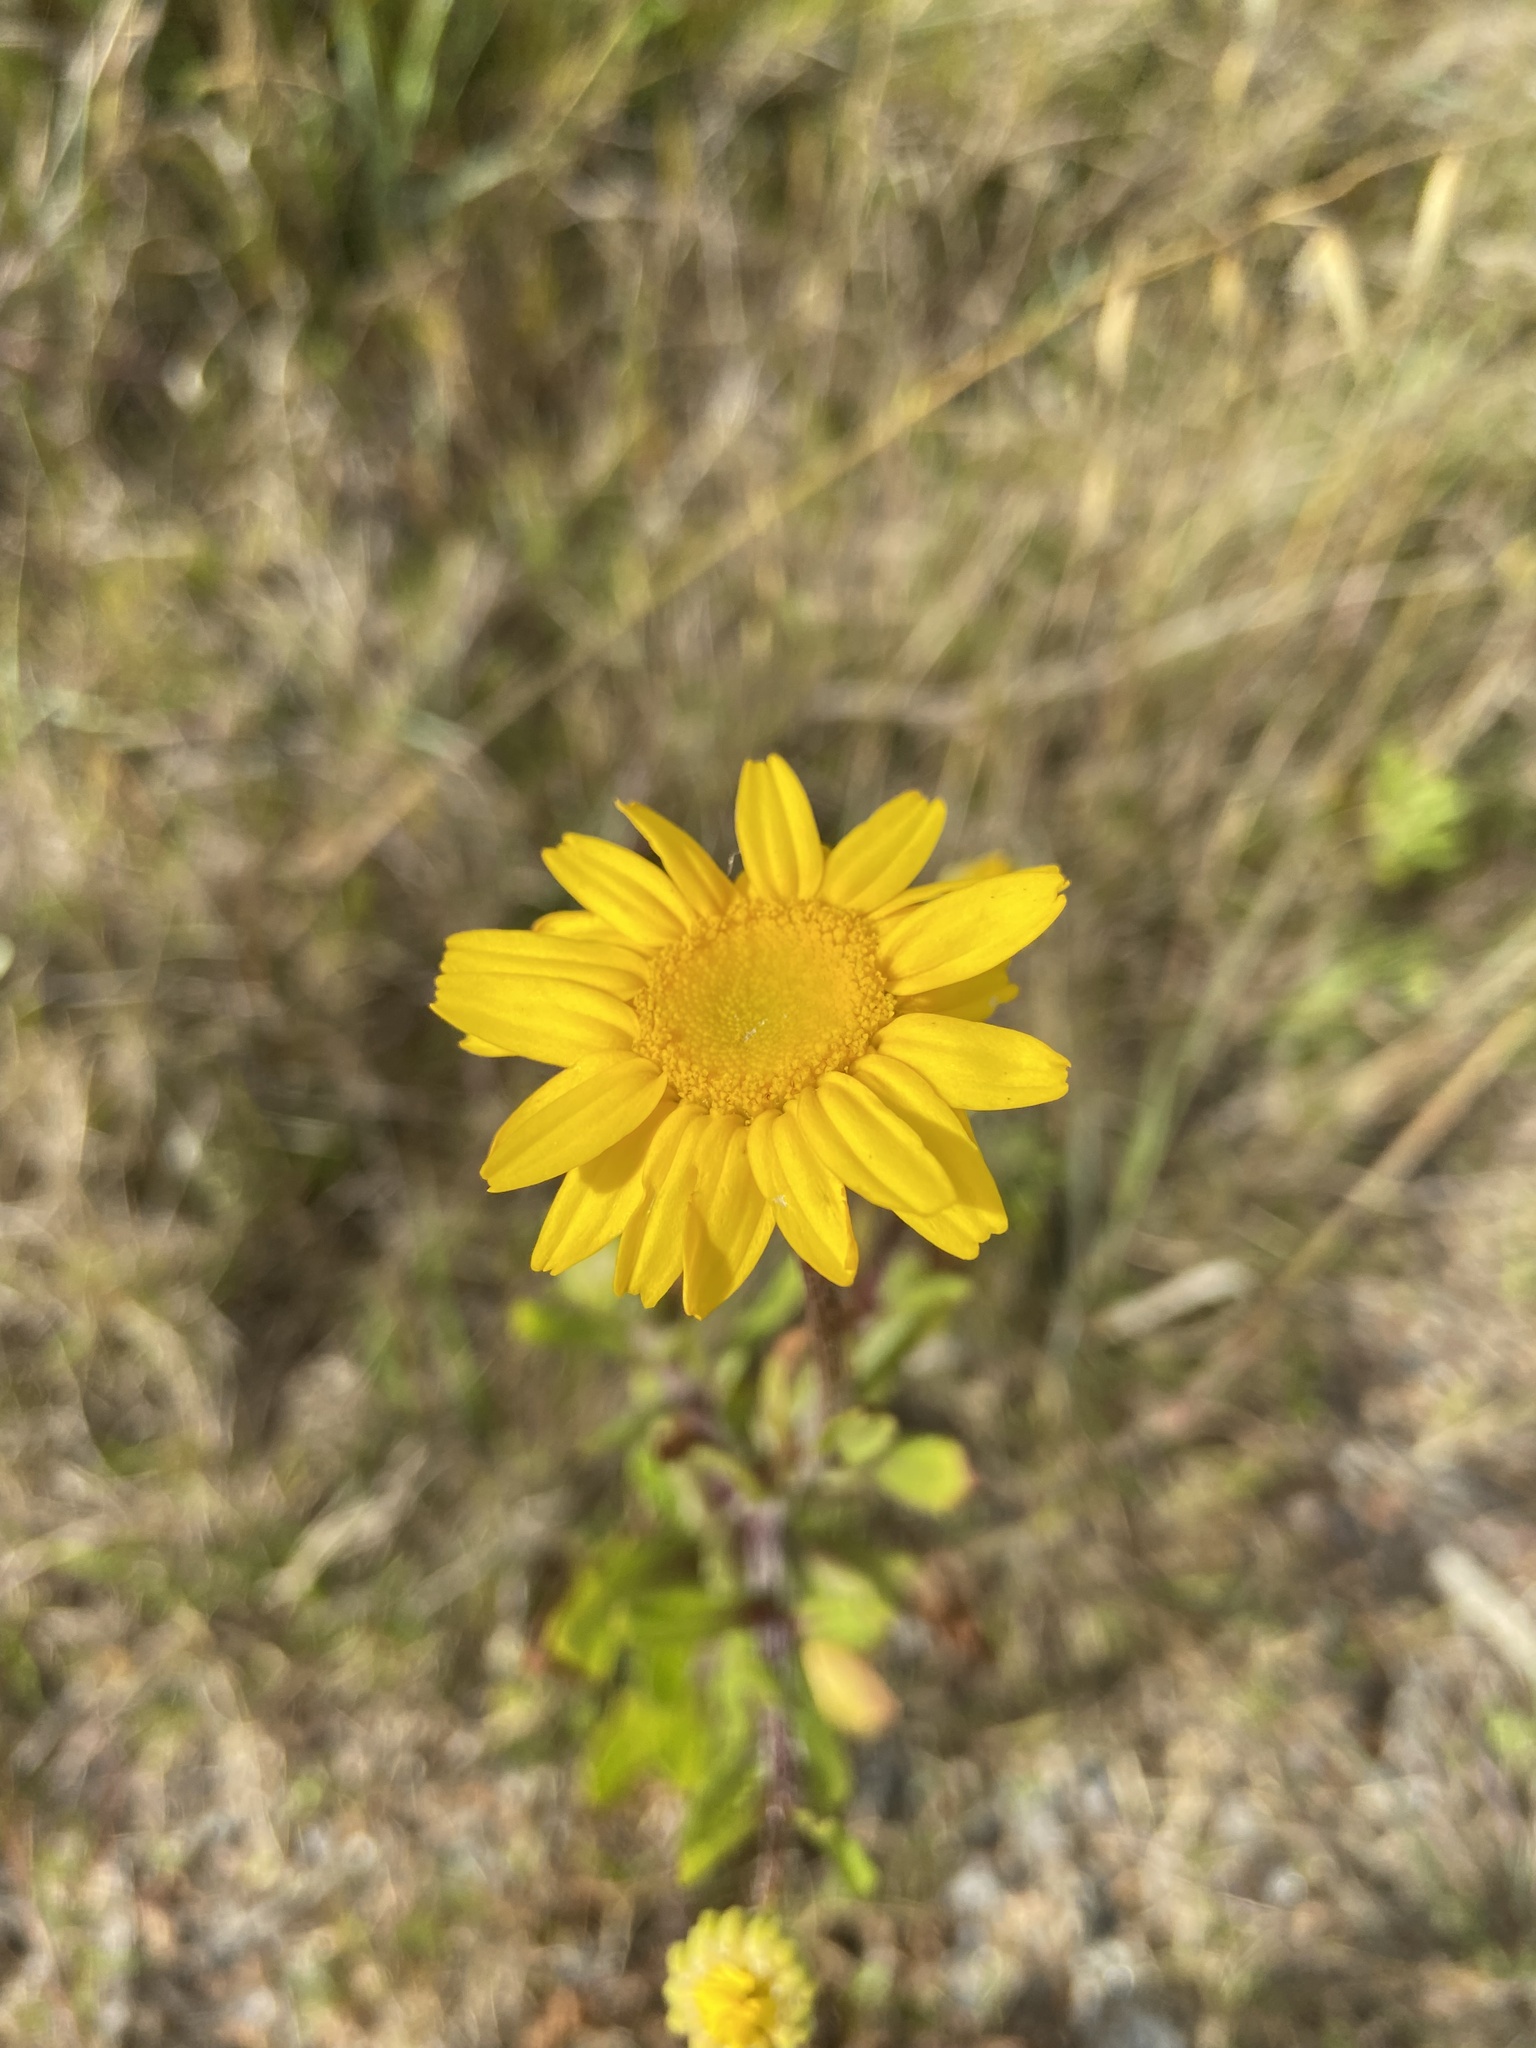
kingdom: Plantae
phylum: Tracheophyta
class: Magnoliopsida
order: Asterales
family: Asteraceae
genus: Coleostephus
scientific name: Coleostephus myconis
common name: Mediterranean marigold
